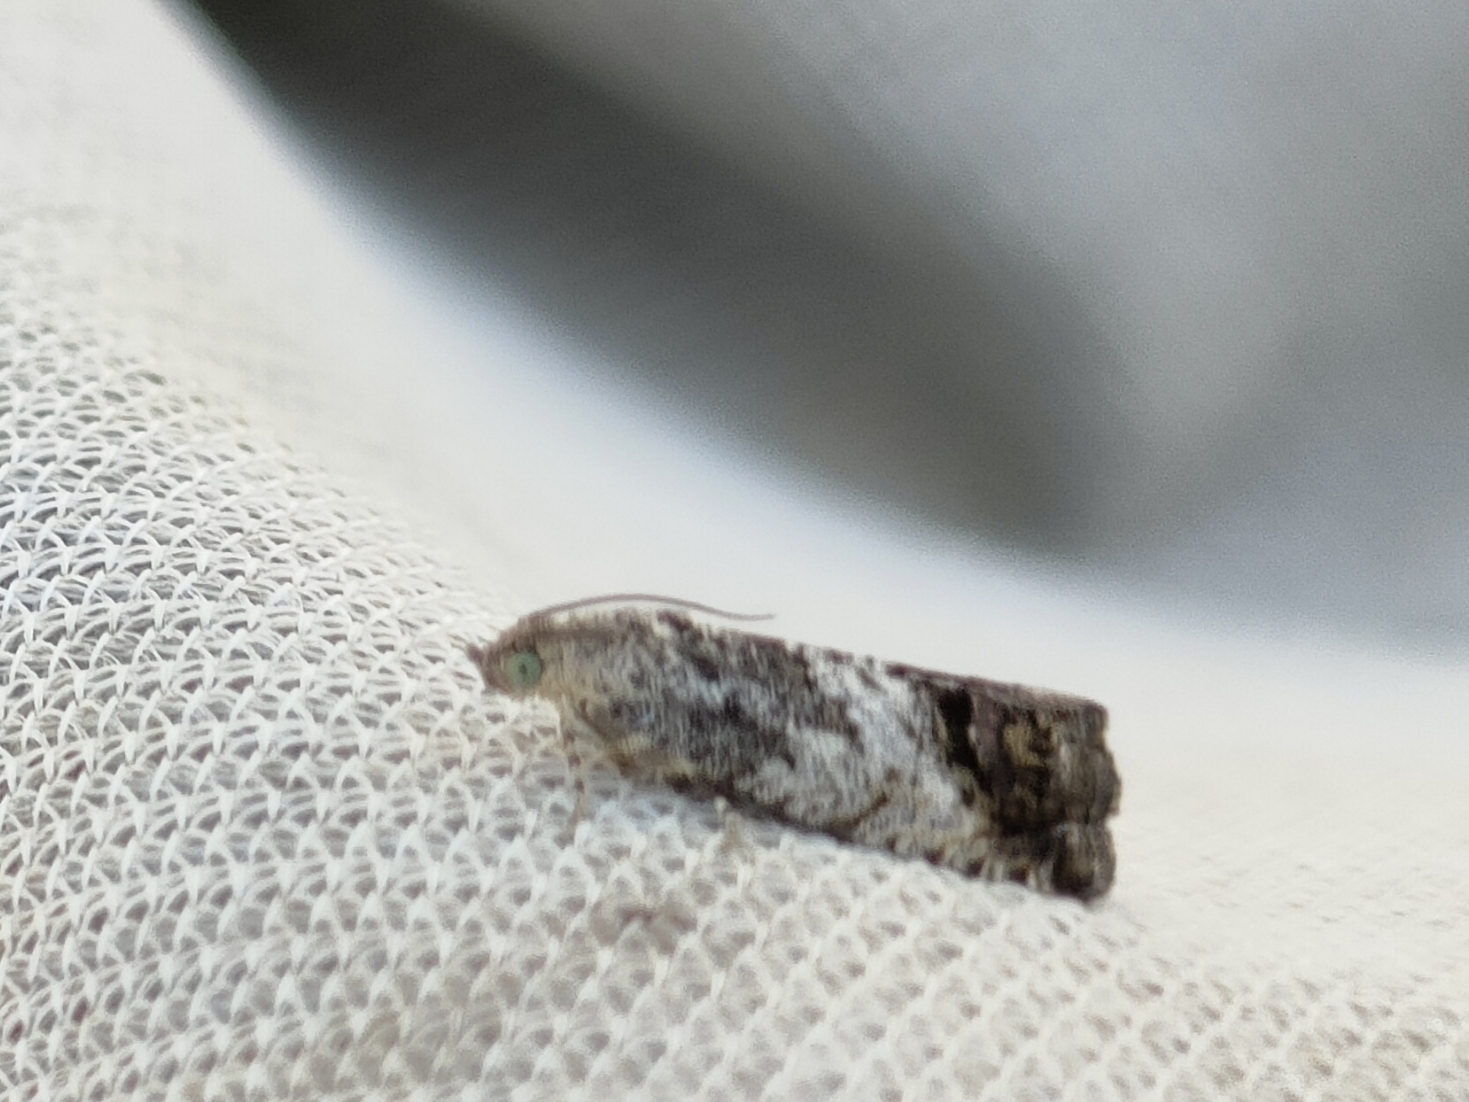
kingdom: Animalia
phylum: Arthropoda
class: Insecta
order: Lepidoptera
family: Tortricidae
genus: Cydia
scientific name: Cydia splendana
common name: De: kastanienwickler, eichenwickler es: oruga de la castaña fr: carpocapse des châtaignes it: cidia o tortrice tardiva delle castagne pt: bichado das castanhas gb: acorn moth, chestnut fruit tortrix
